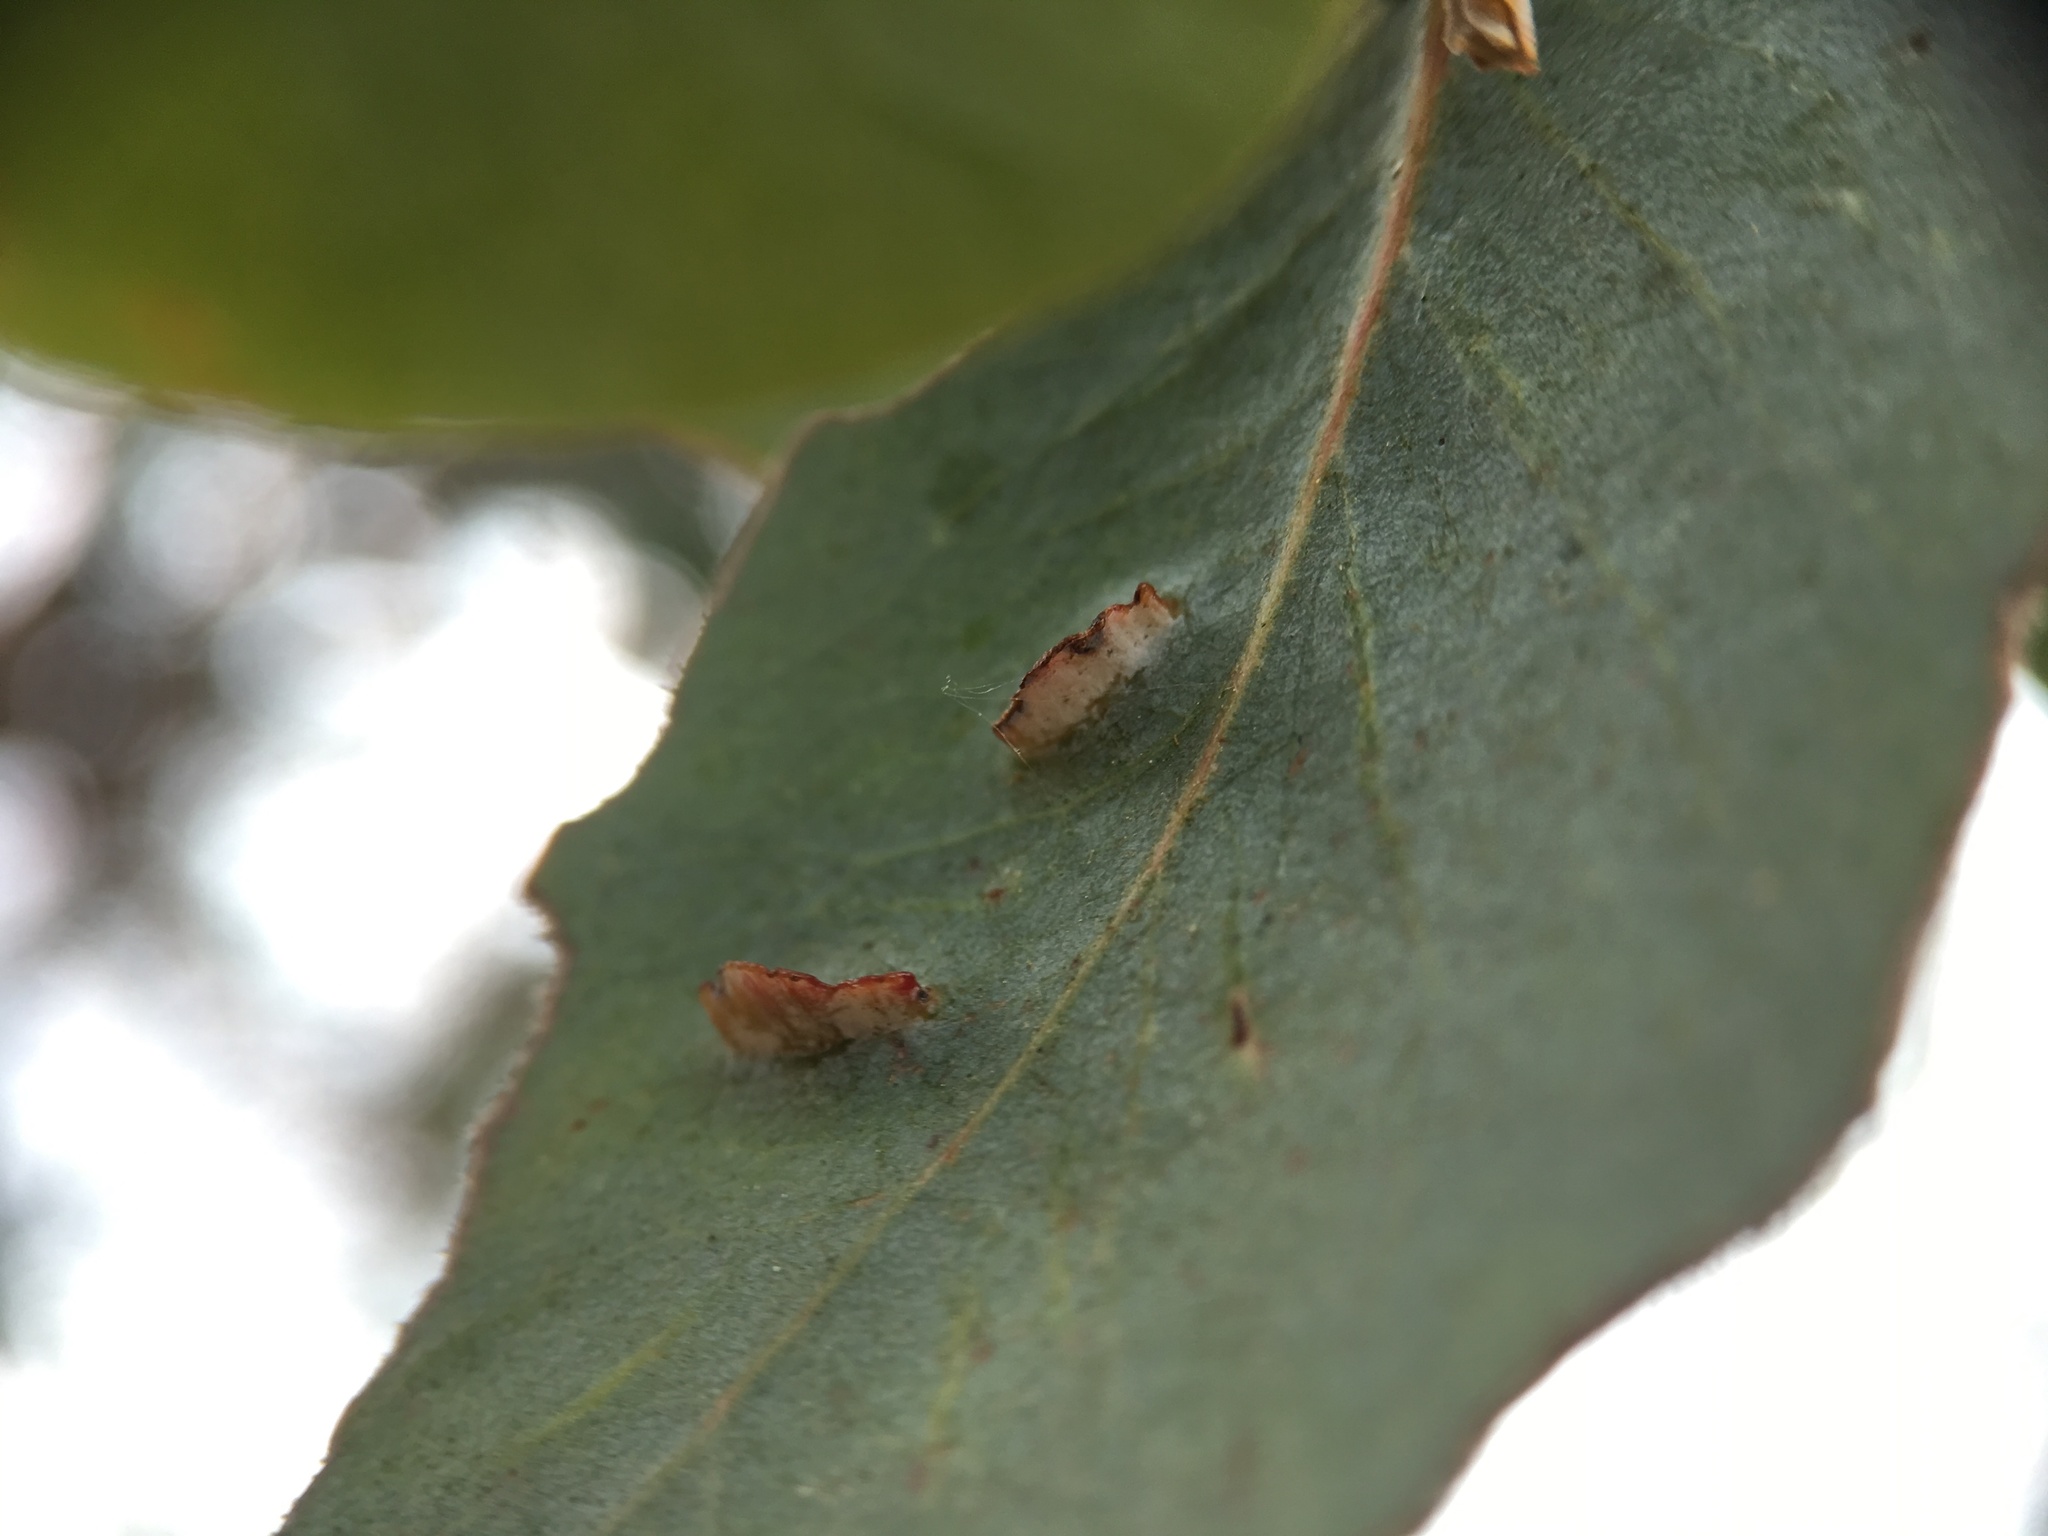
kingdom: Animalia
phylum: Arthropoda
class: Insecta
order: Hymenoptera
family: Pteromalidae
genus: Nambouria
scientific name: Nambouria xanthops
